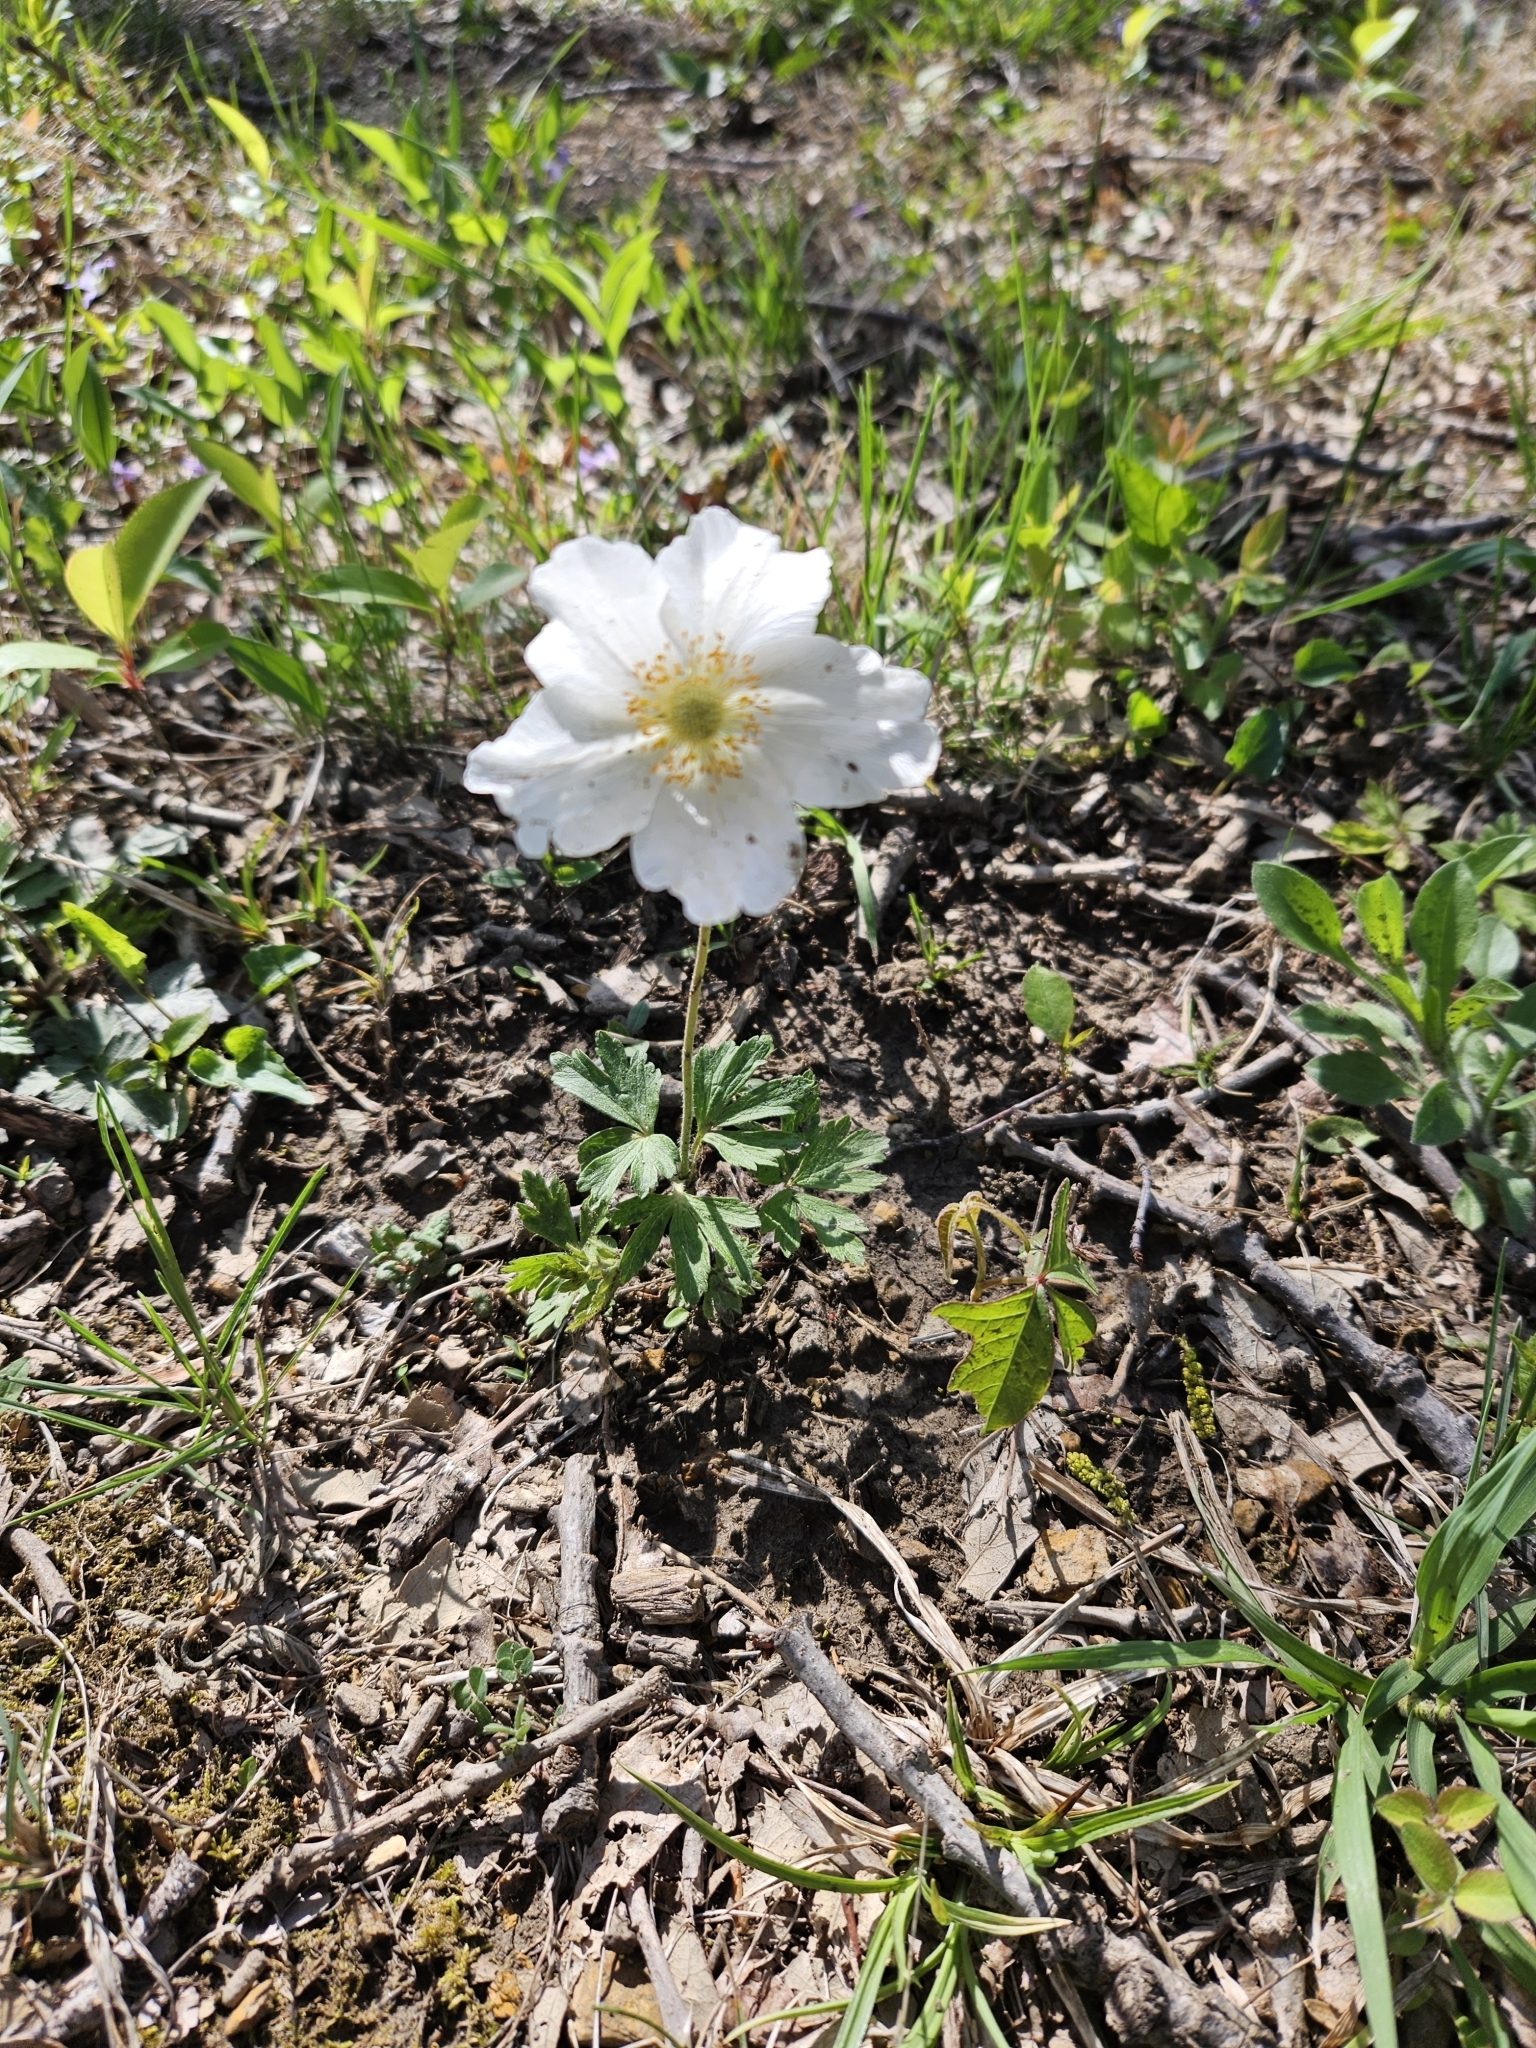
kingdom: Plantae
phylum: Tracheophyta
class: Magnoliopsida
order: Ranunculales
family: Ranunculaceae
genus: Anemone
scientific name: Anemone sylvestris
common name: Snowdrop anemone
